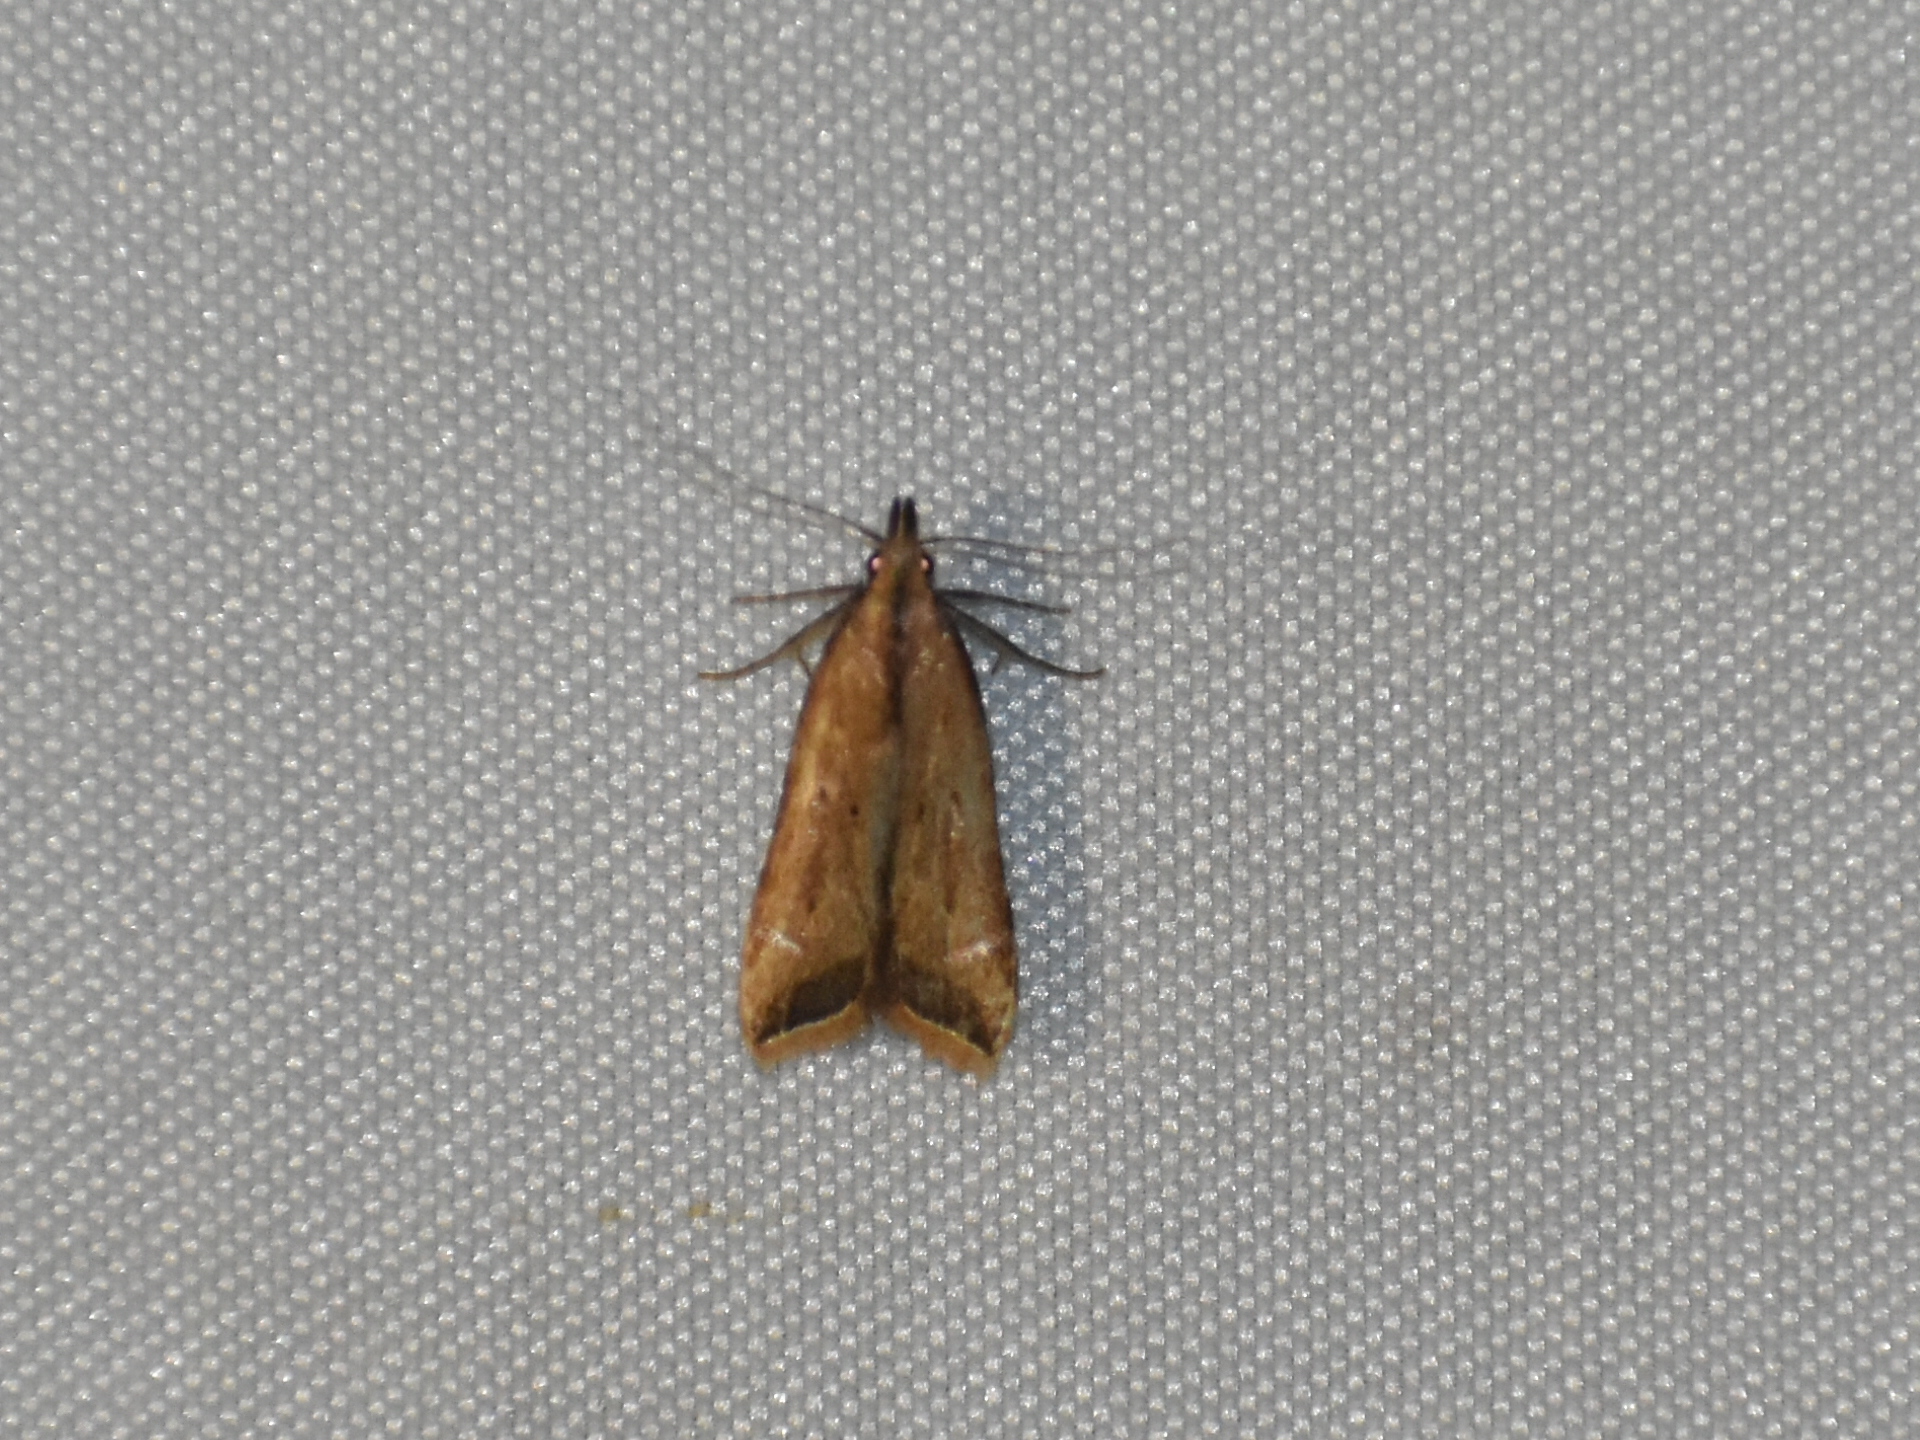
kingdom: Animalia
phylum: Arthropoda
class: Insecta
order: Lepidoptera
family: Gelechiidae
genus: Dichomeris
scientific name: Dichomeris heriguronis
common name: Black-edged dichomeris moth
